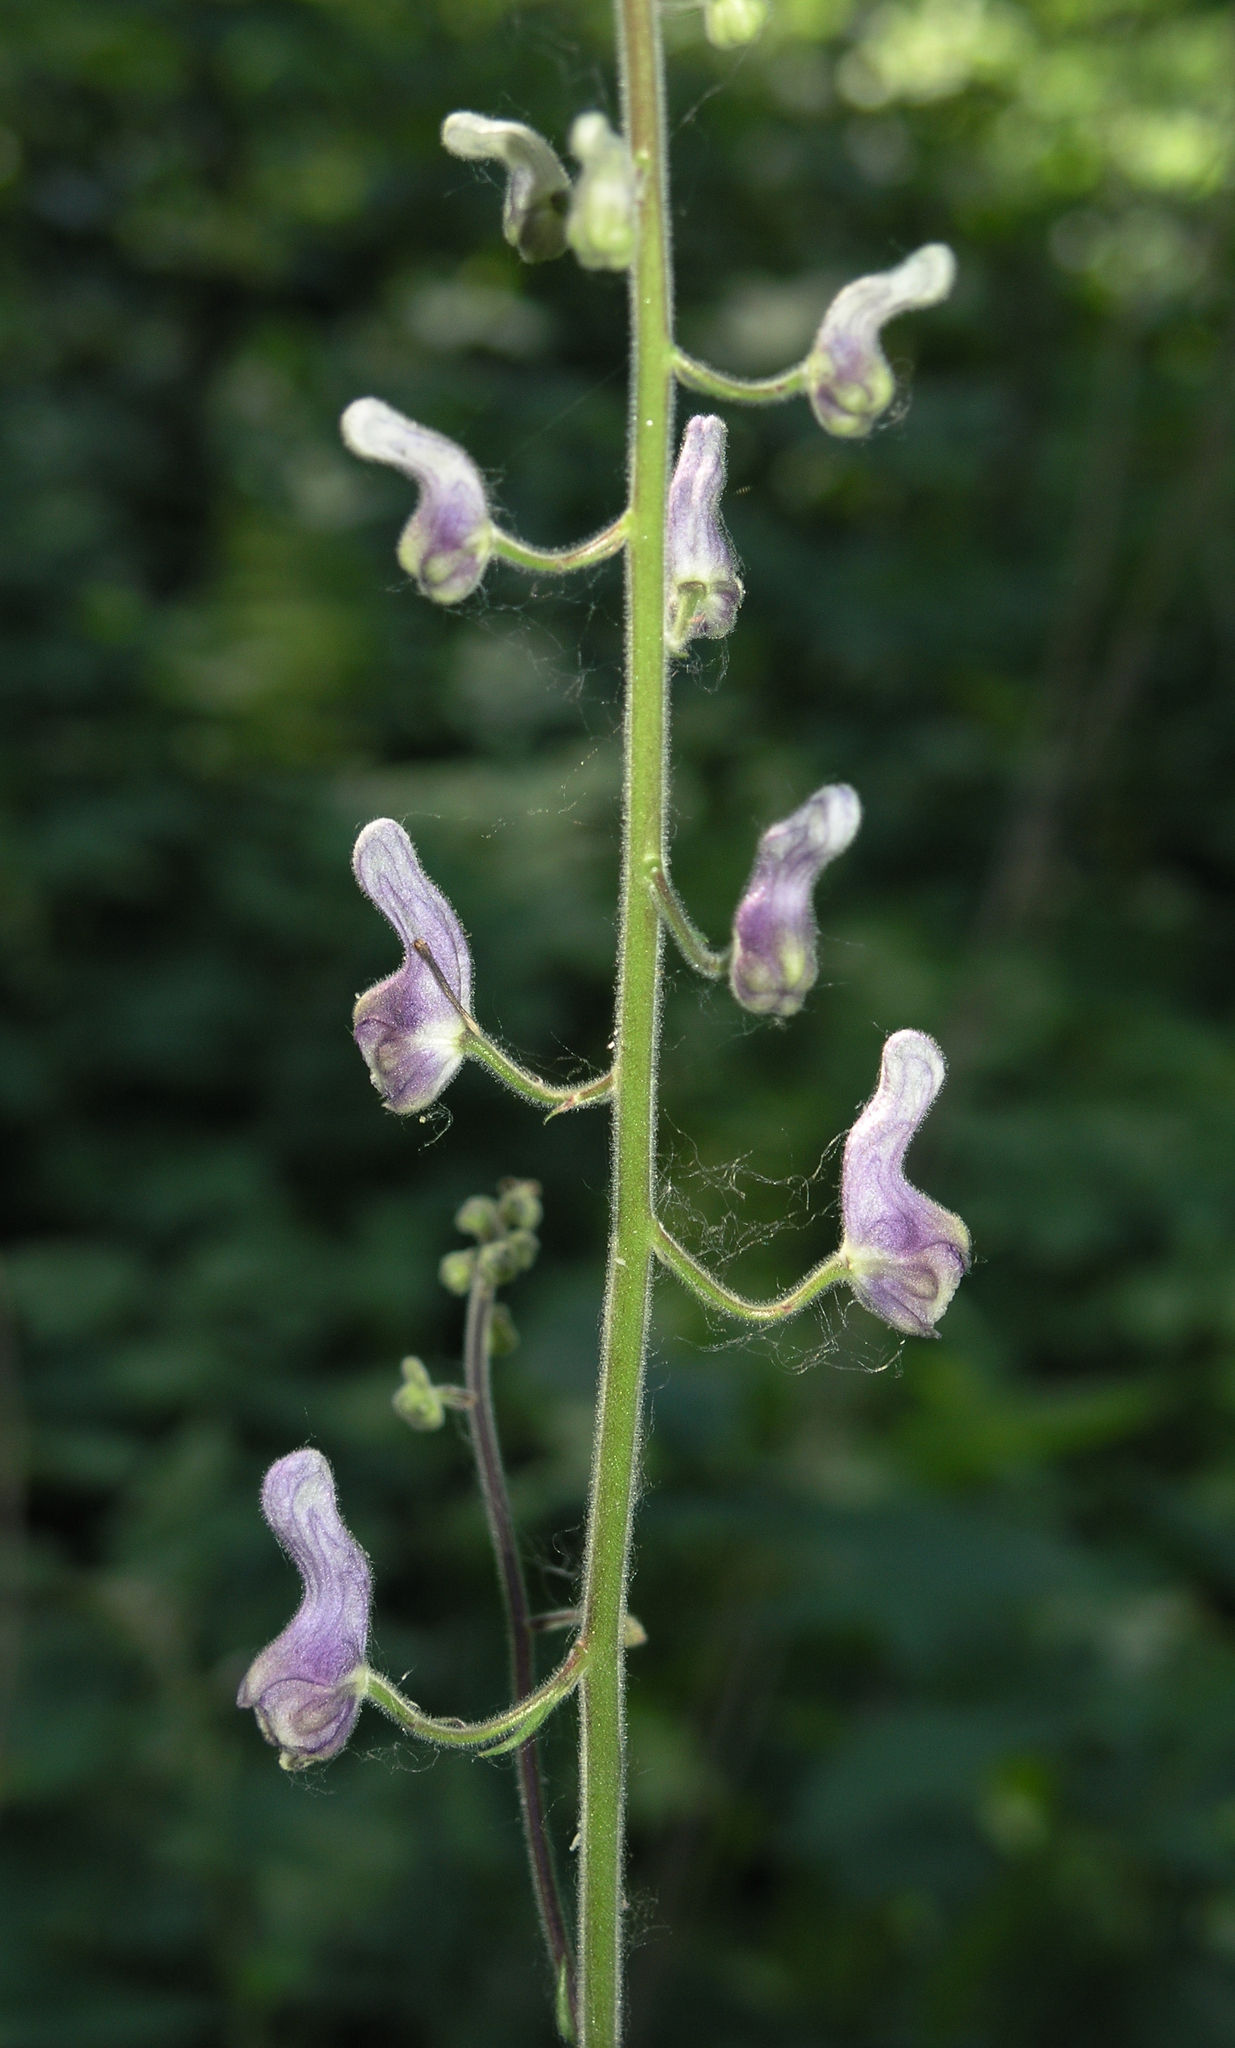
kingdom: Plantae
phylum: Tracheophyta
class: Magnoliopsida
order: Ranunculales
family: Ranunculaceae
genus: Aconitum
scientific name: Aconitum septentrionale
